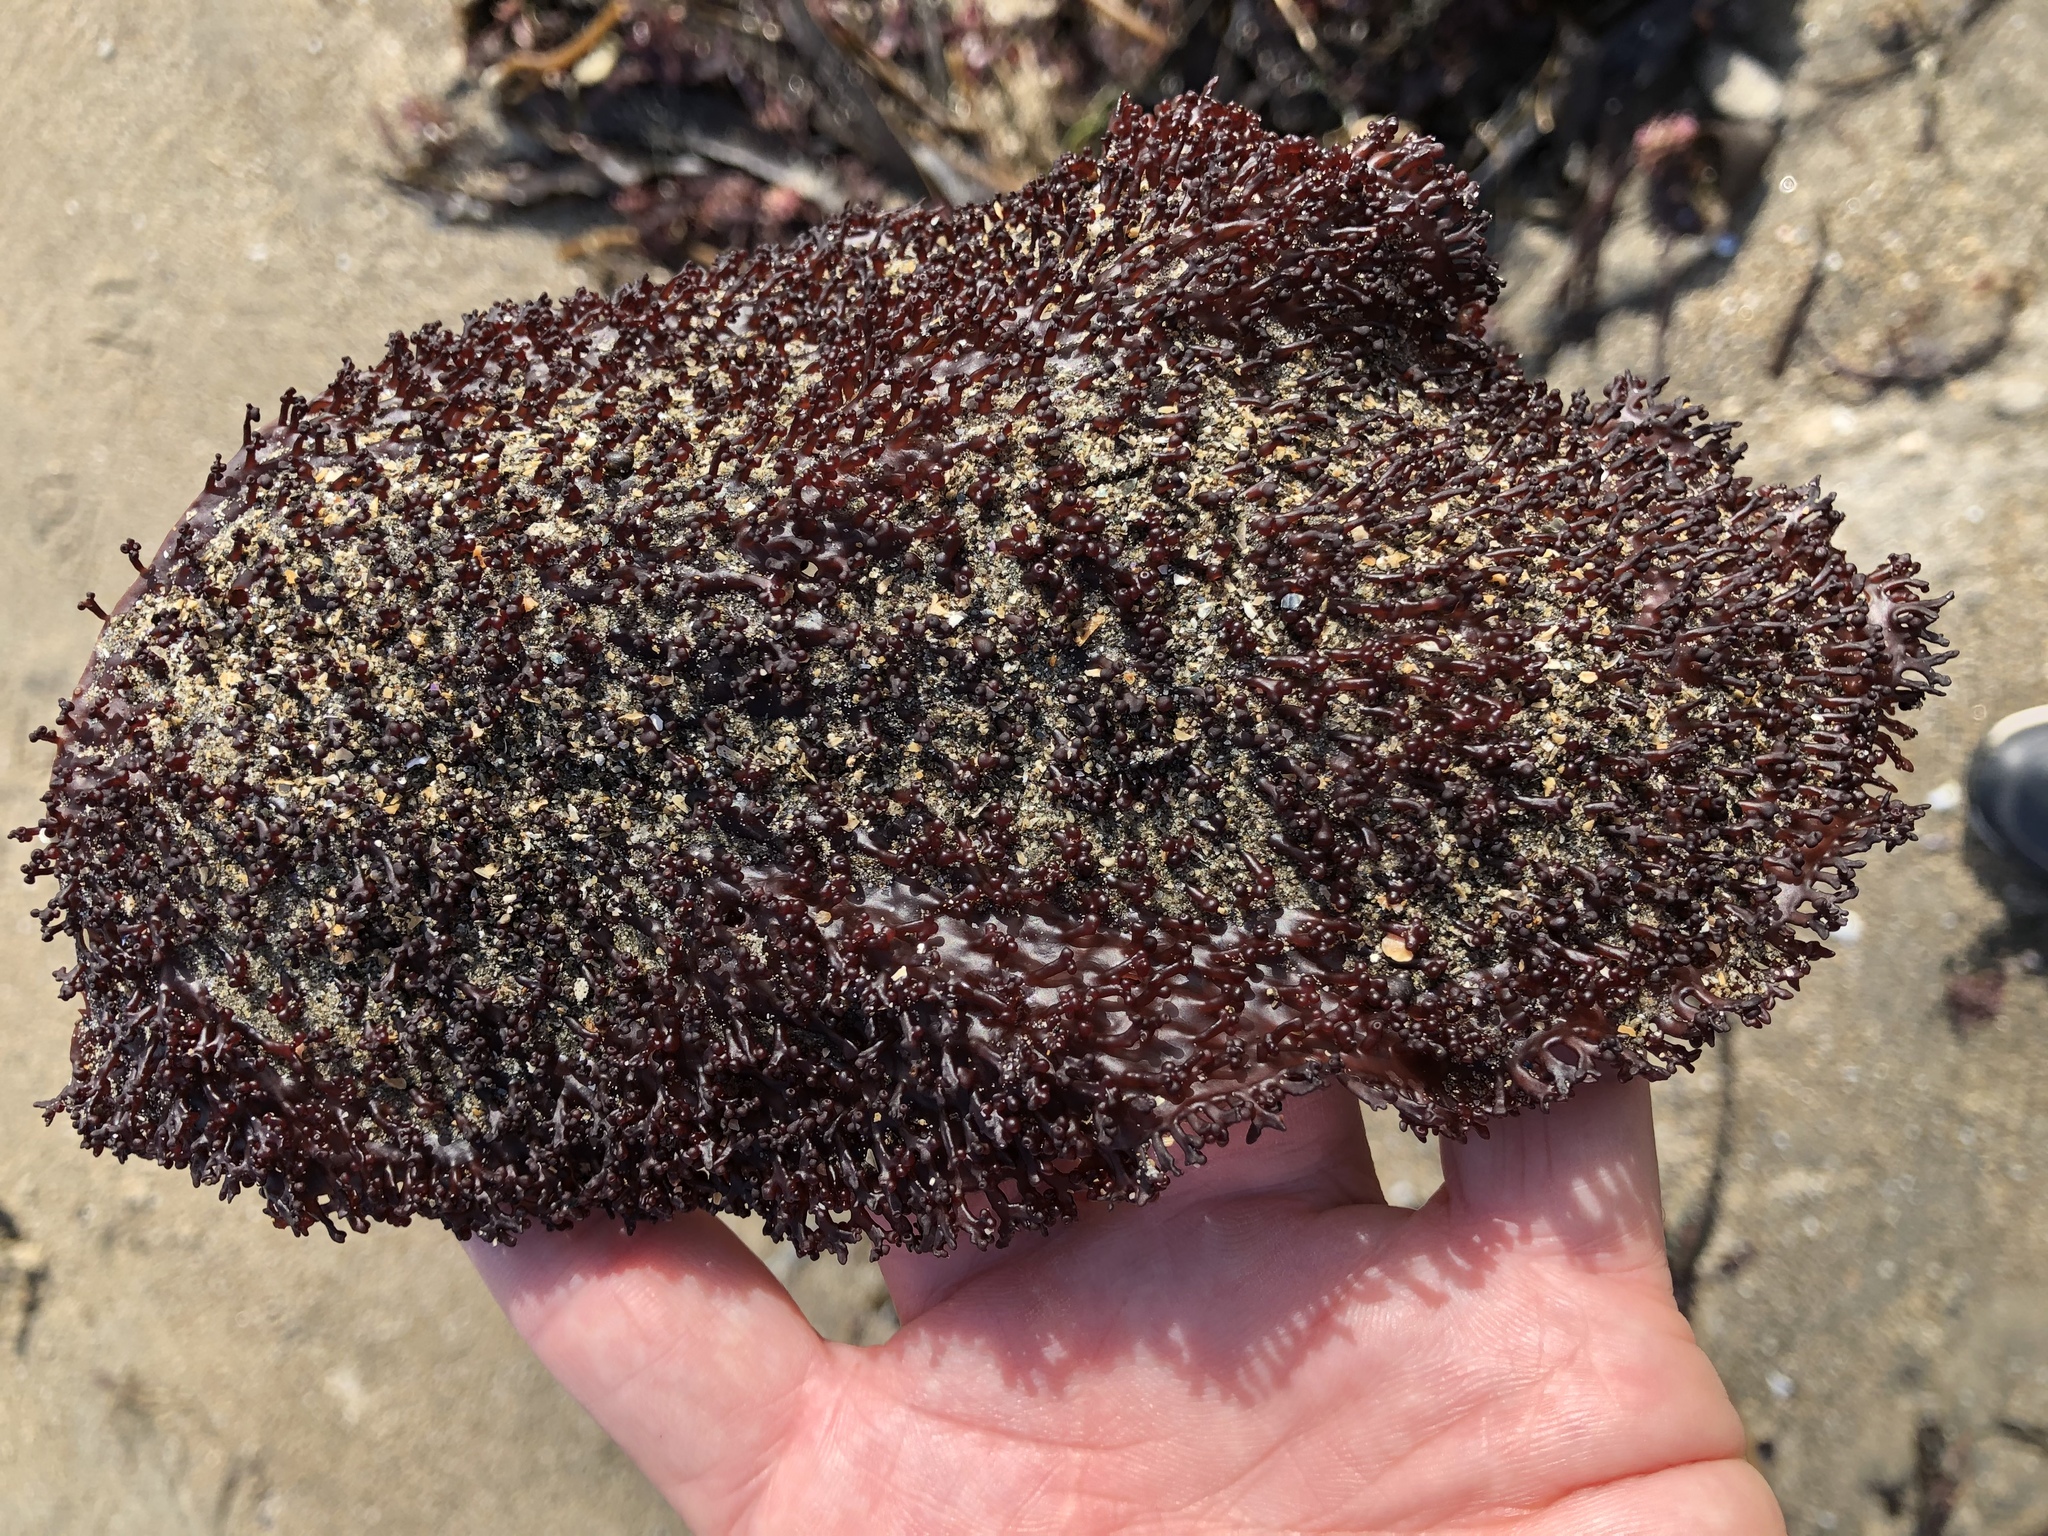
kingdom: Plantae
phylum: Rhodophyta
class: Florideophyceae
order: Gigartinales
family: Gigartinaceae
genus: Chondracanthus
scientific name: Chondracanthus corymbiferus
